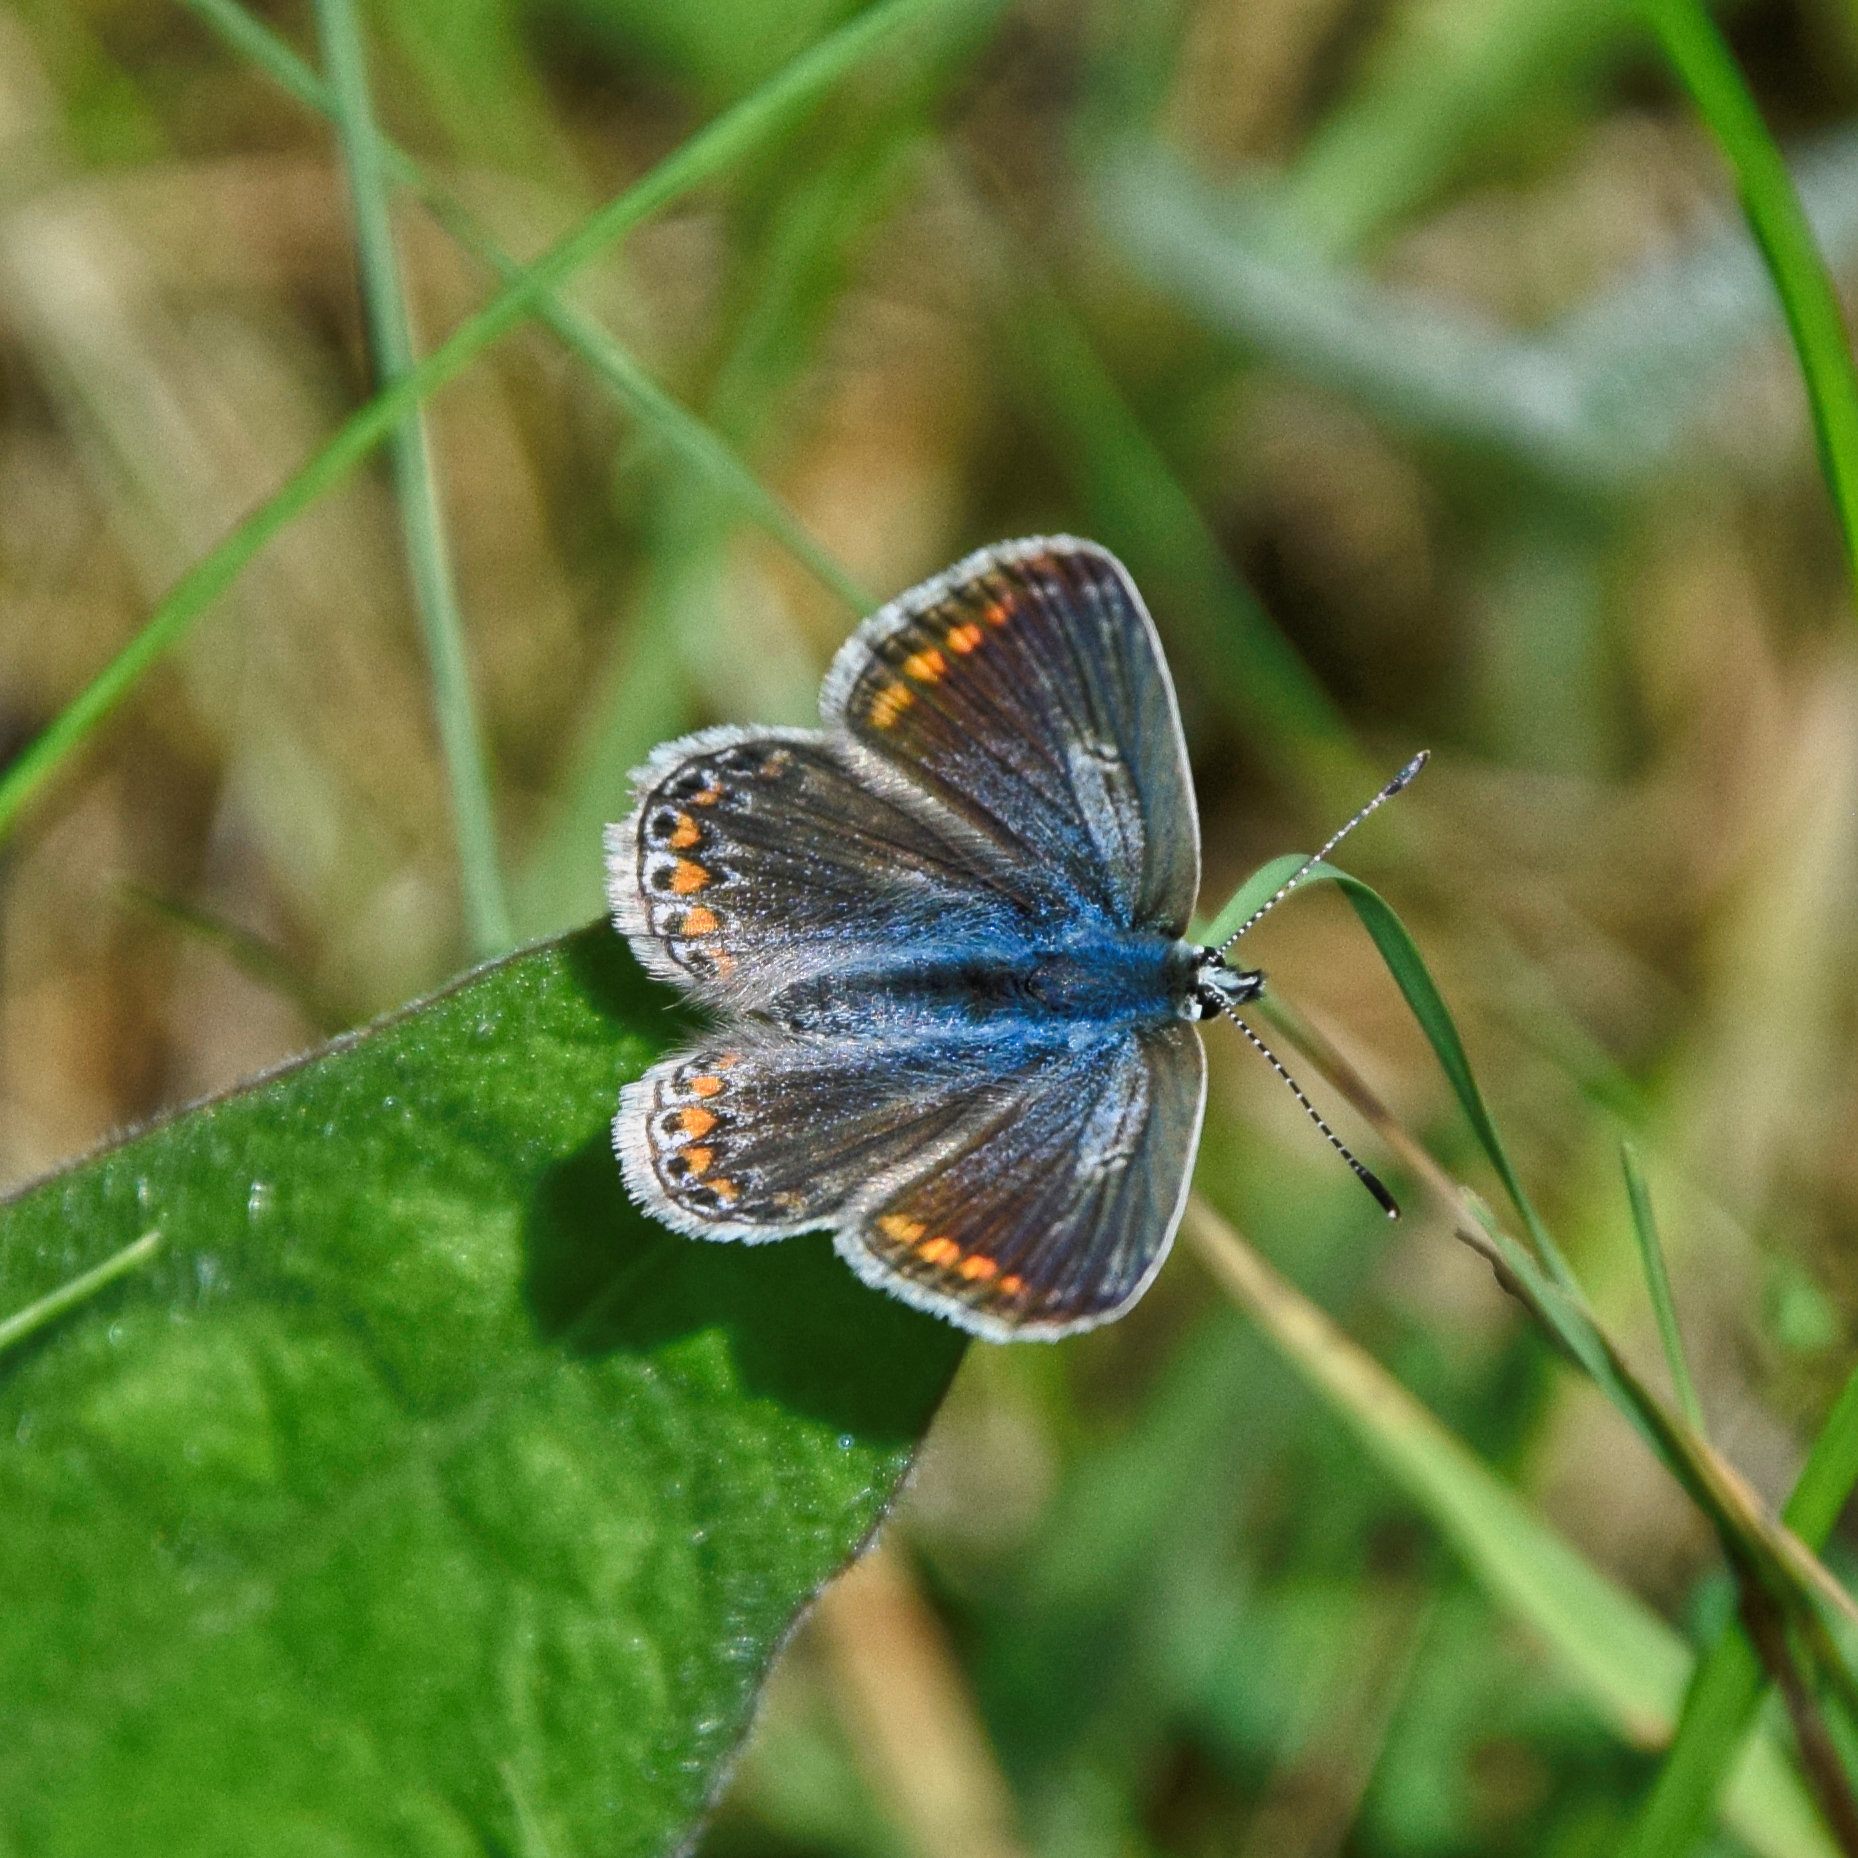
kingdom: Animalia
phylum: Arthropoda
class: Insecta
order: Lepidoptera
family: Lycaenidae
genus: Polyommatus
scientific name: Polyommatus icarus
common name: Common blue
